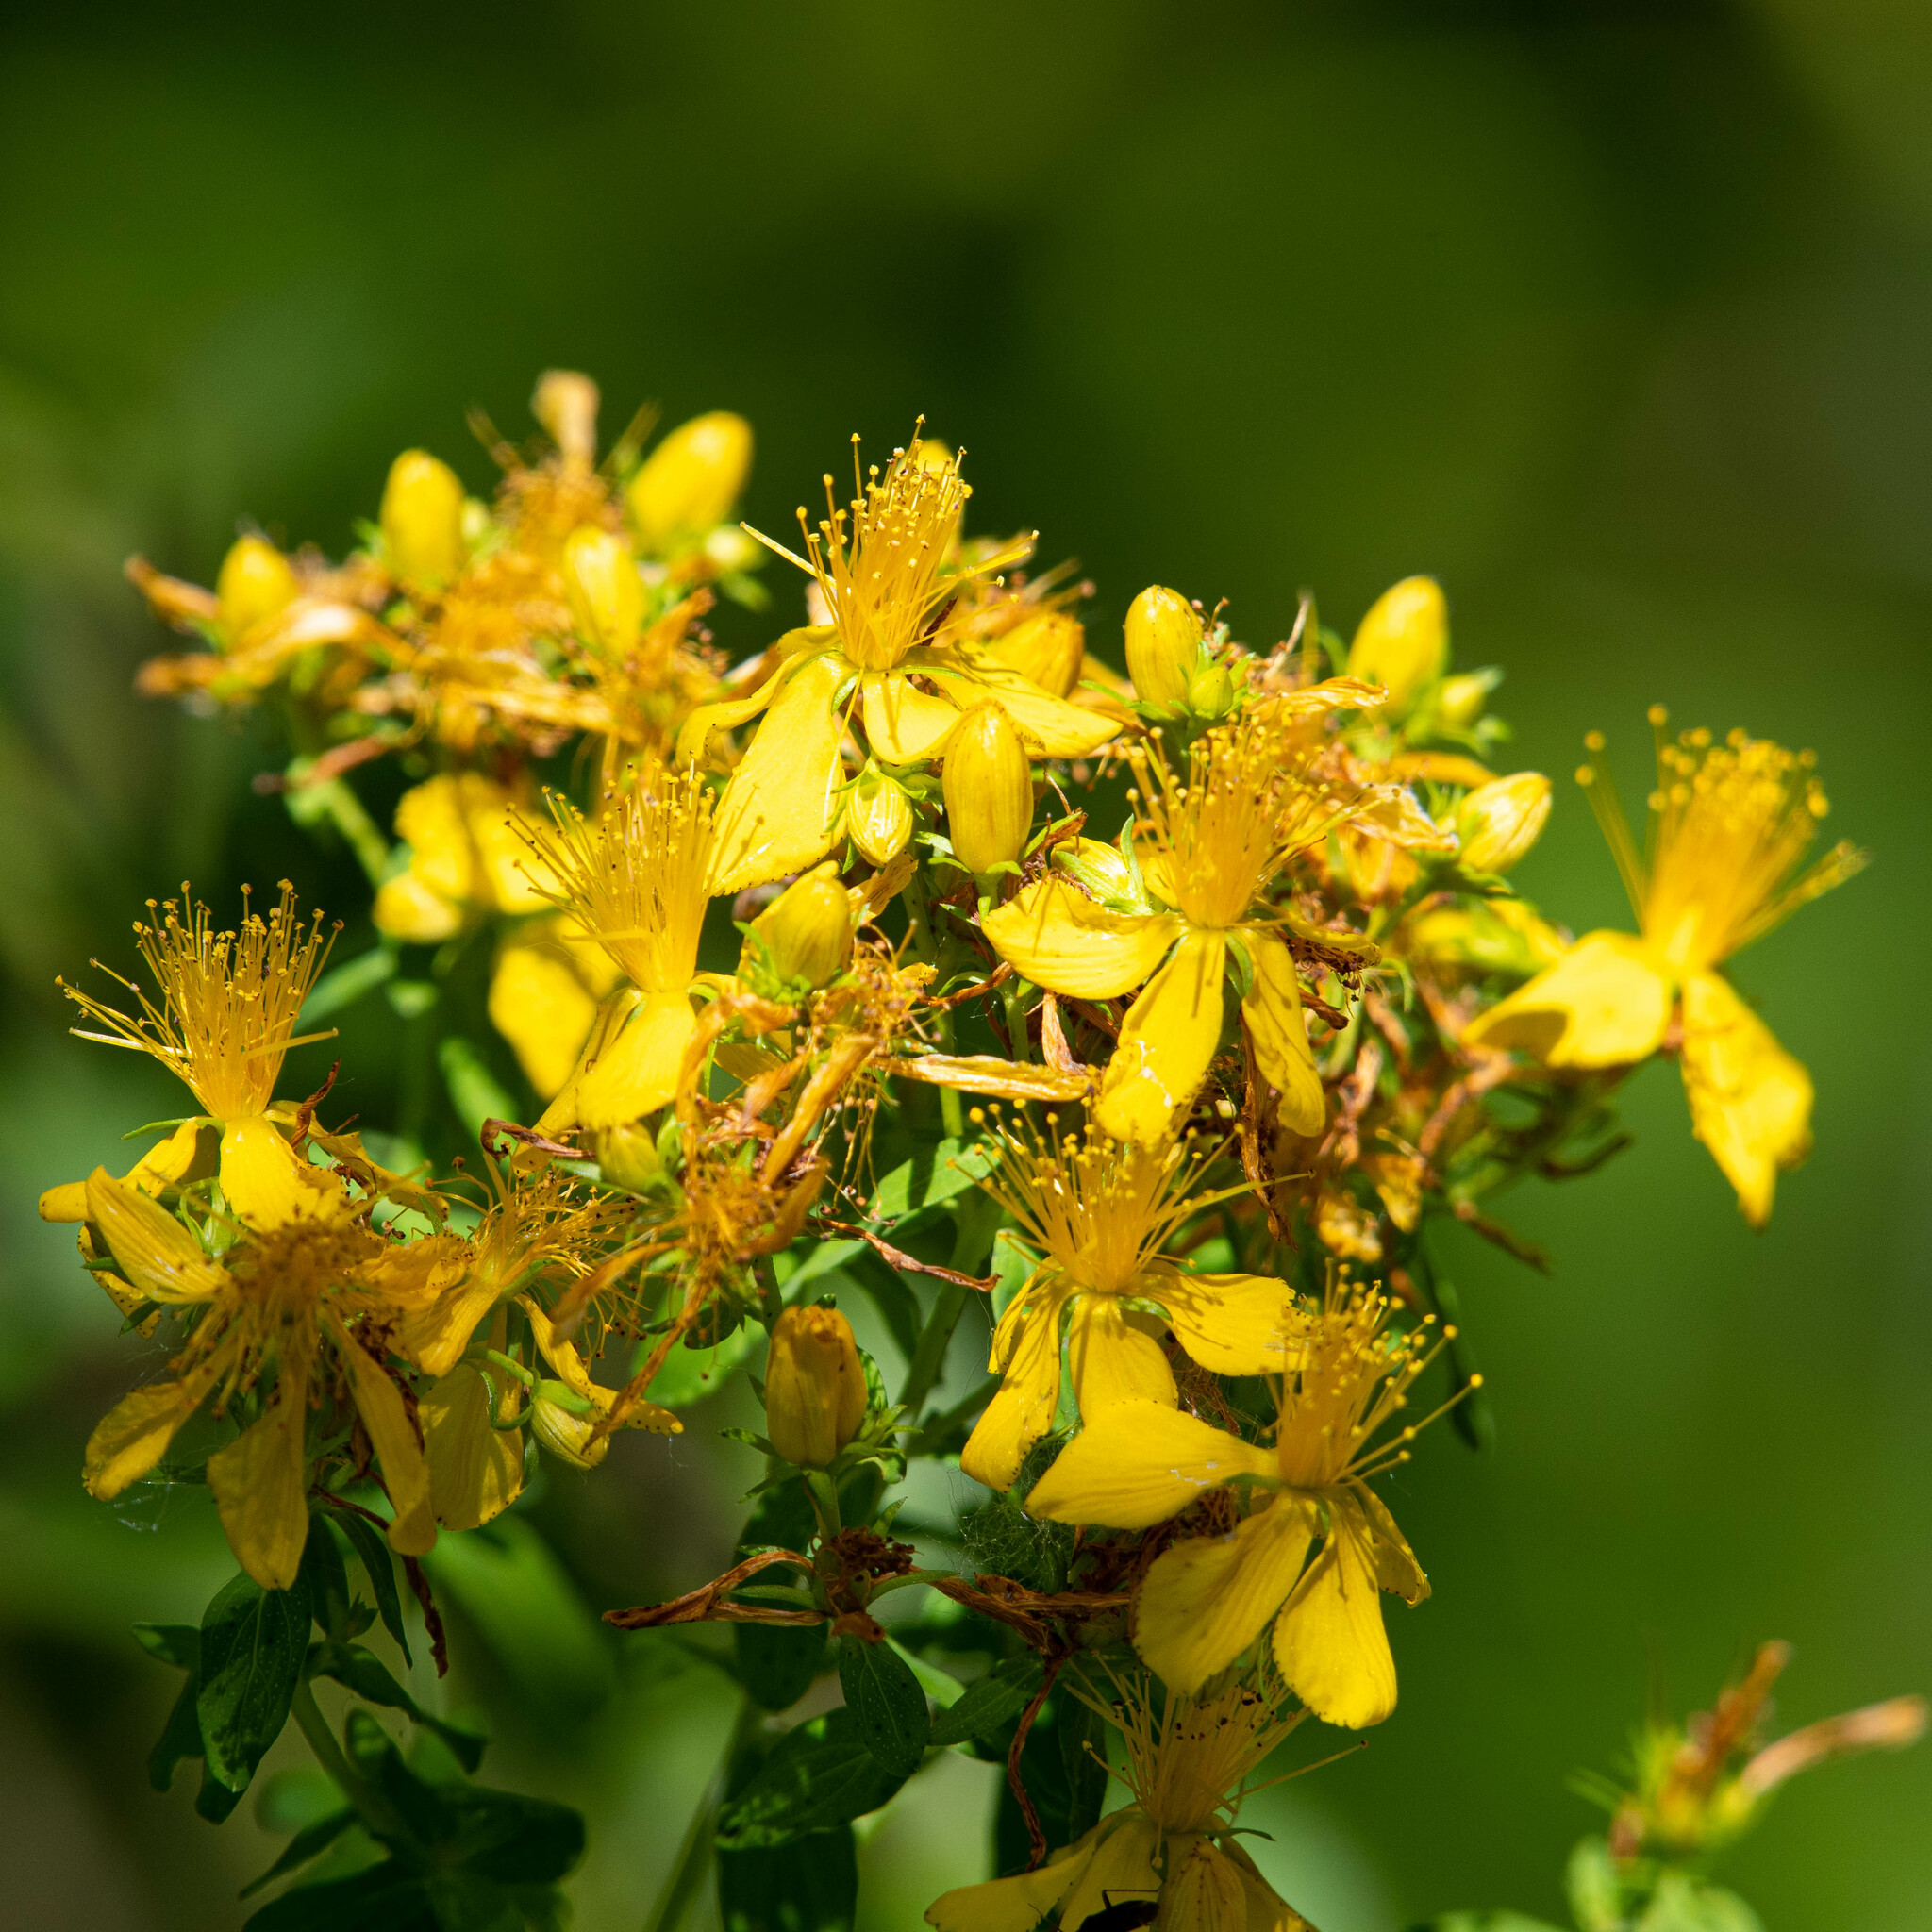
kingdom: Plantae
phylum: Tracheophyta
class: Magnoliopsida
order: Malpighiales
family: Hypericaceae
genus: Hypericum
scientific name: Hypericum perforatum
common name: Common st. johnswort
